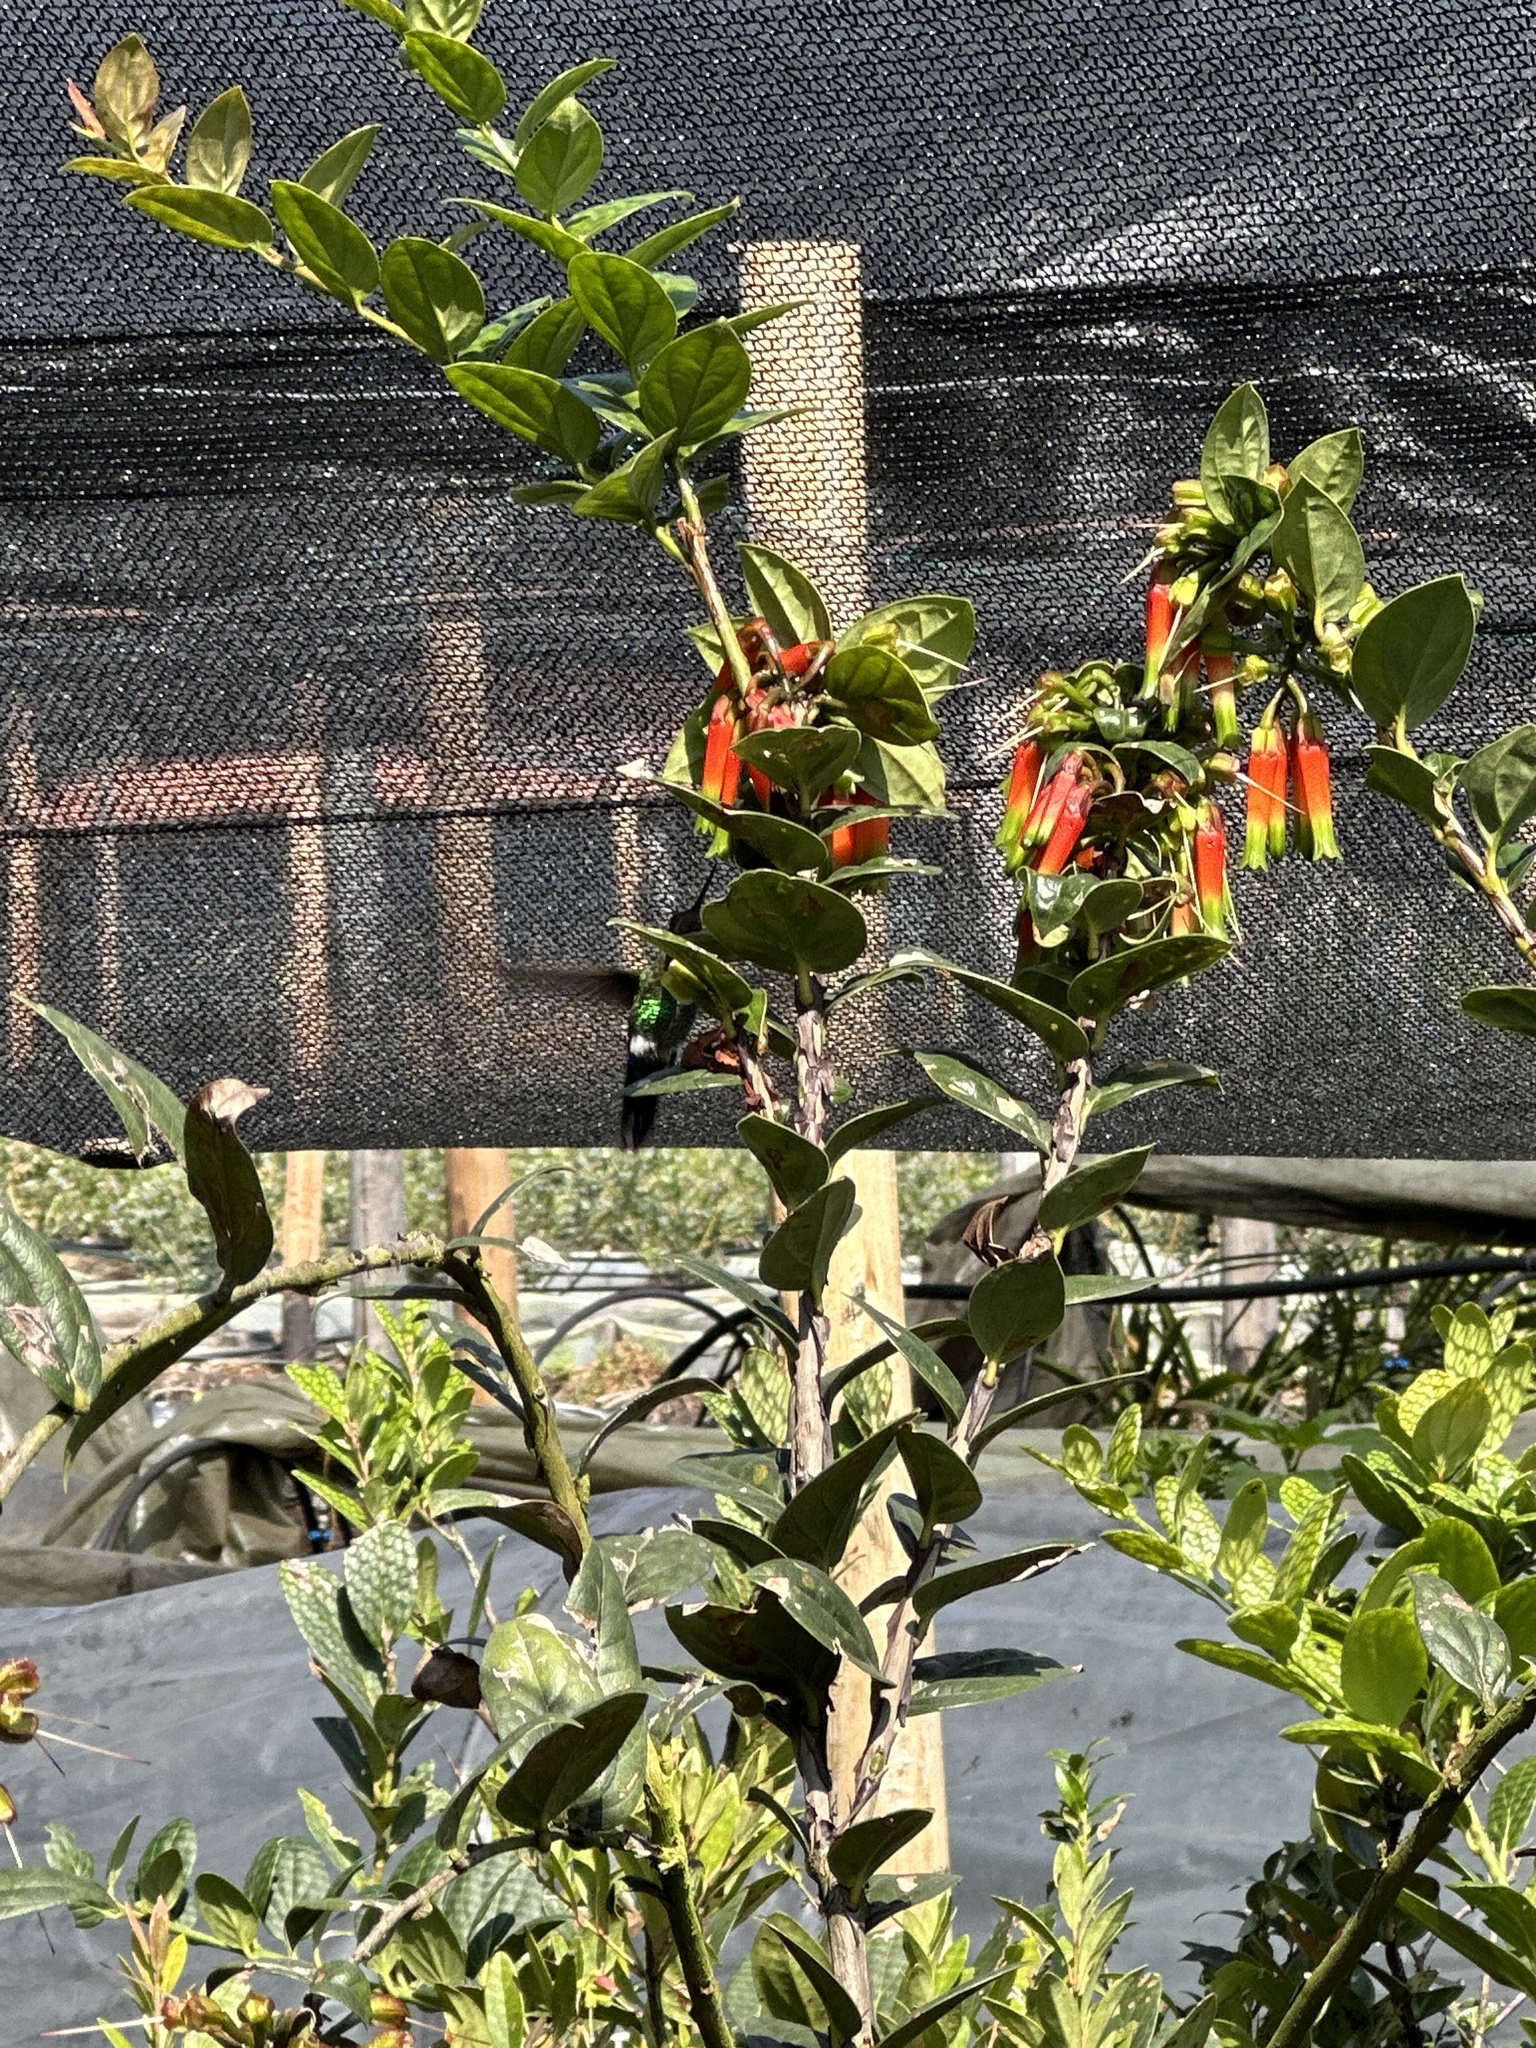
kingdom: Animalia
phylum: Chordata
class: Aves
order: Apodiformes
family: Trochilidae
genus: Eriocnemis
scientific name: Eriocnemis vestita
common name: Glowing puffleg
